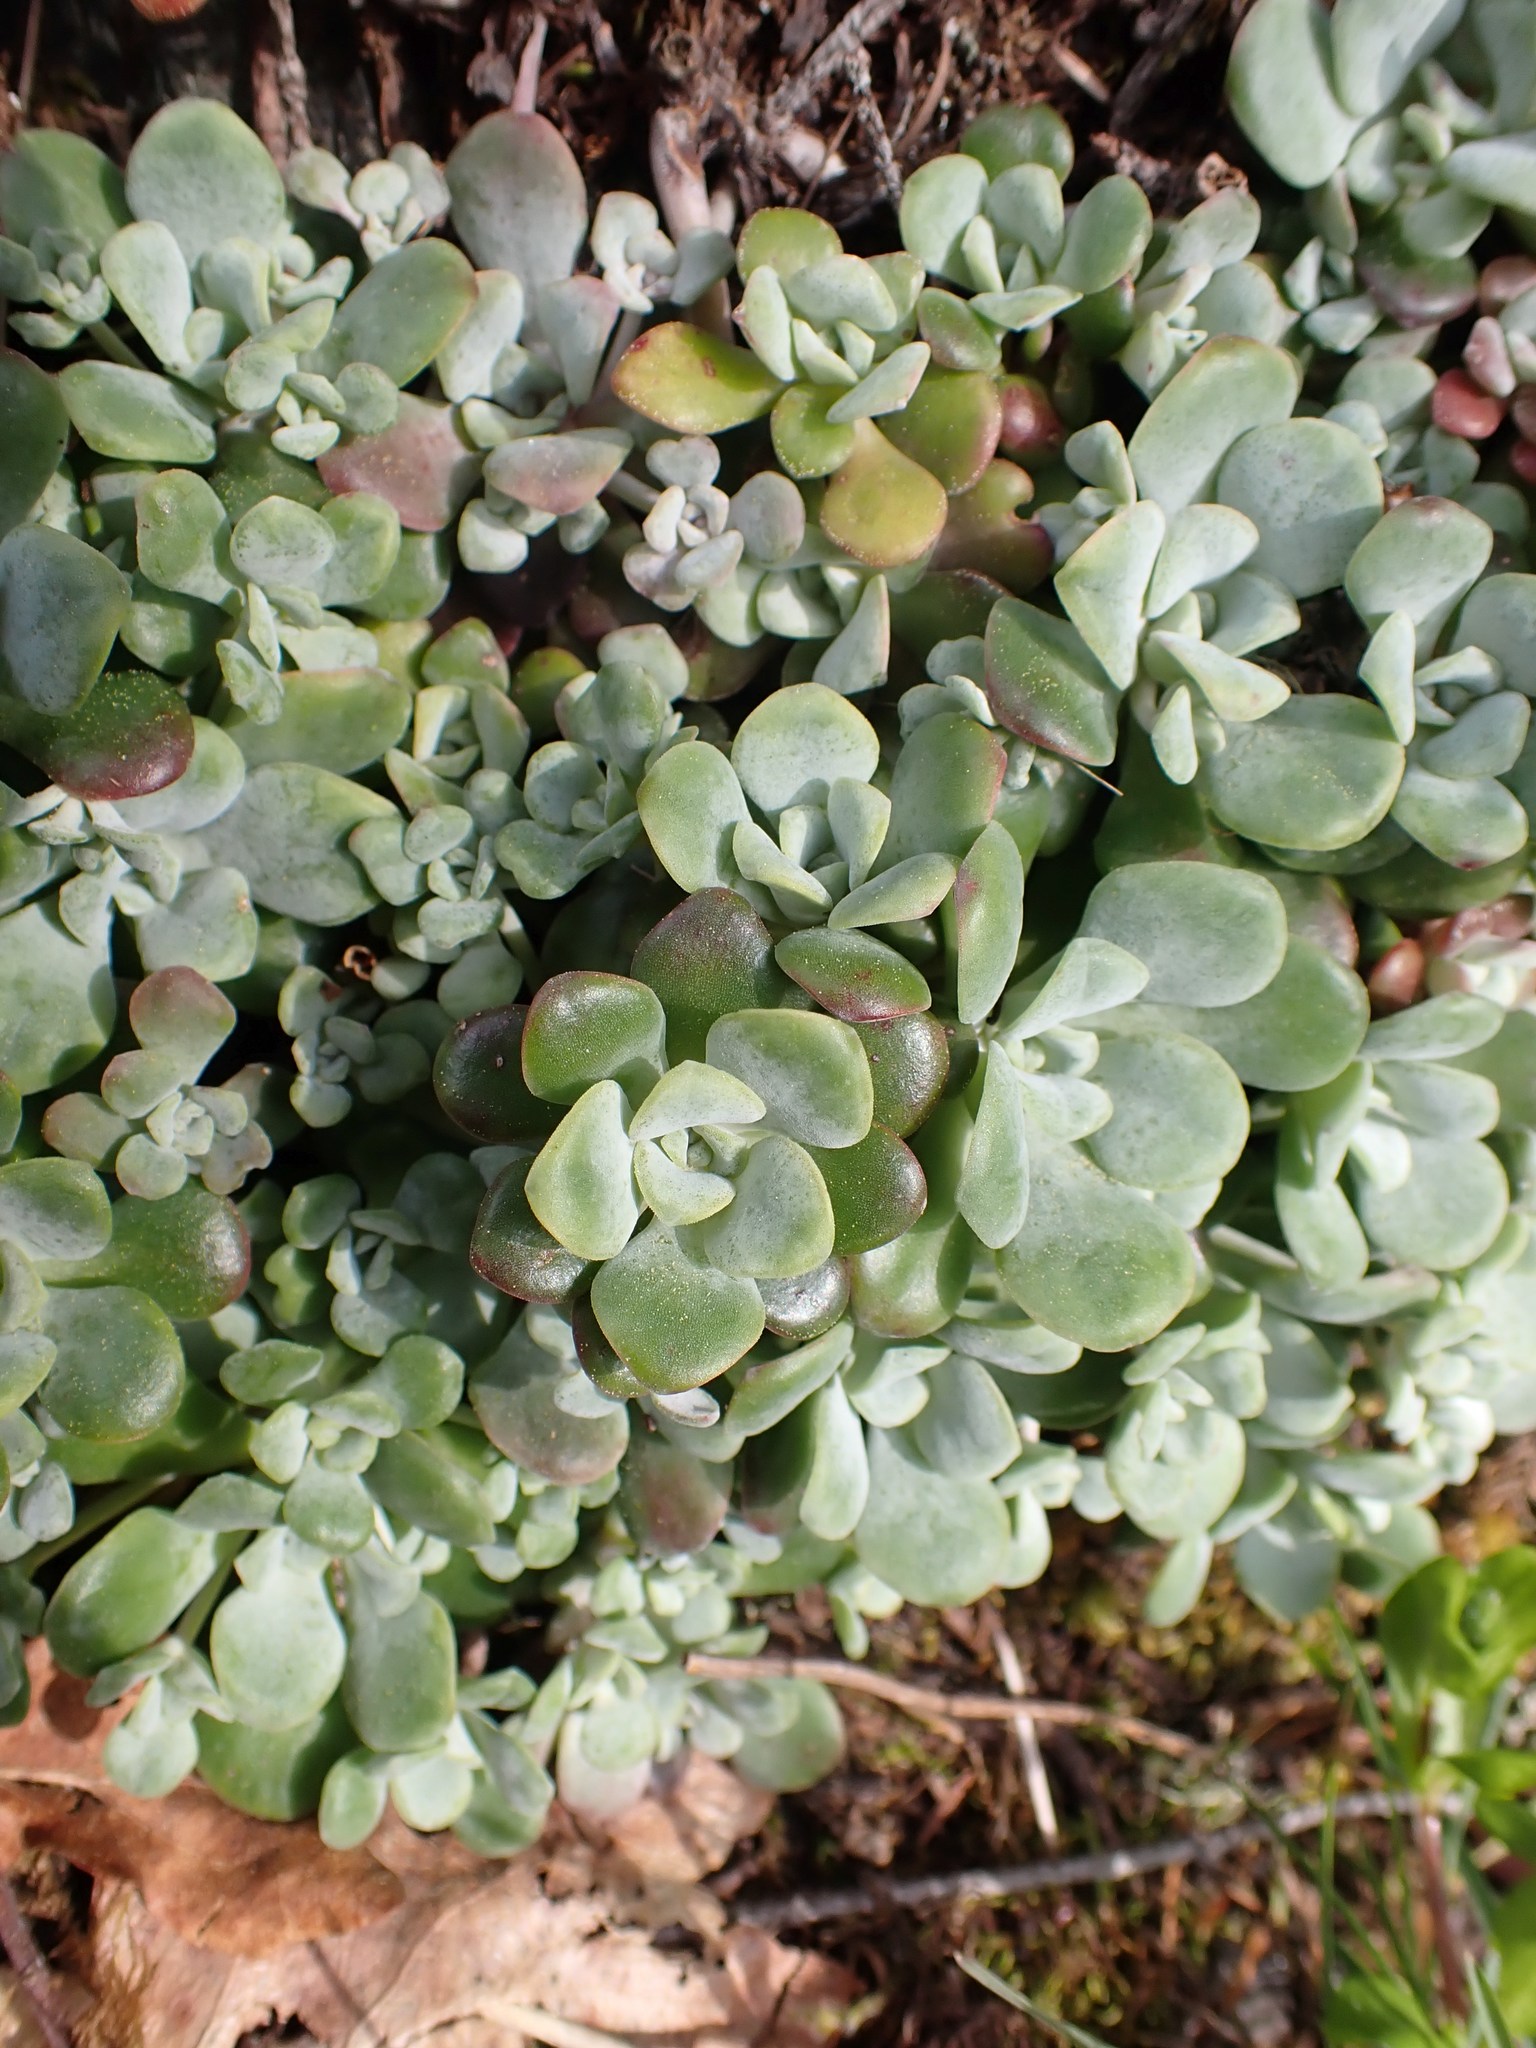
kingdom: Plantae
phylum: Tracheophyta
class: Magnoliopsida
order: Saxifragales
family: Crassulaceae
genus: Sedum
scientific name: Sedum spathulifolium
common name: Colorado stonecrop
